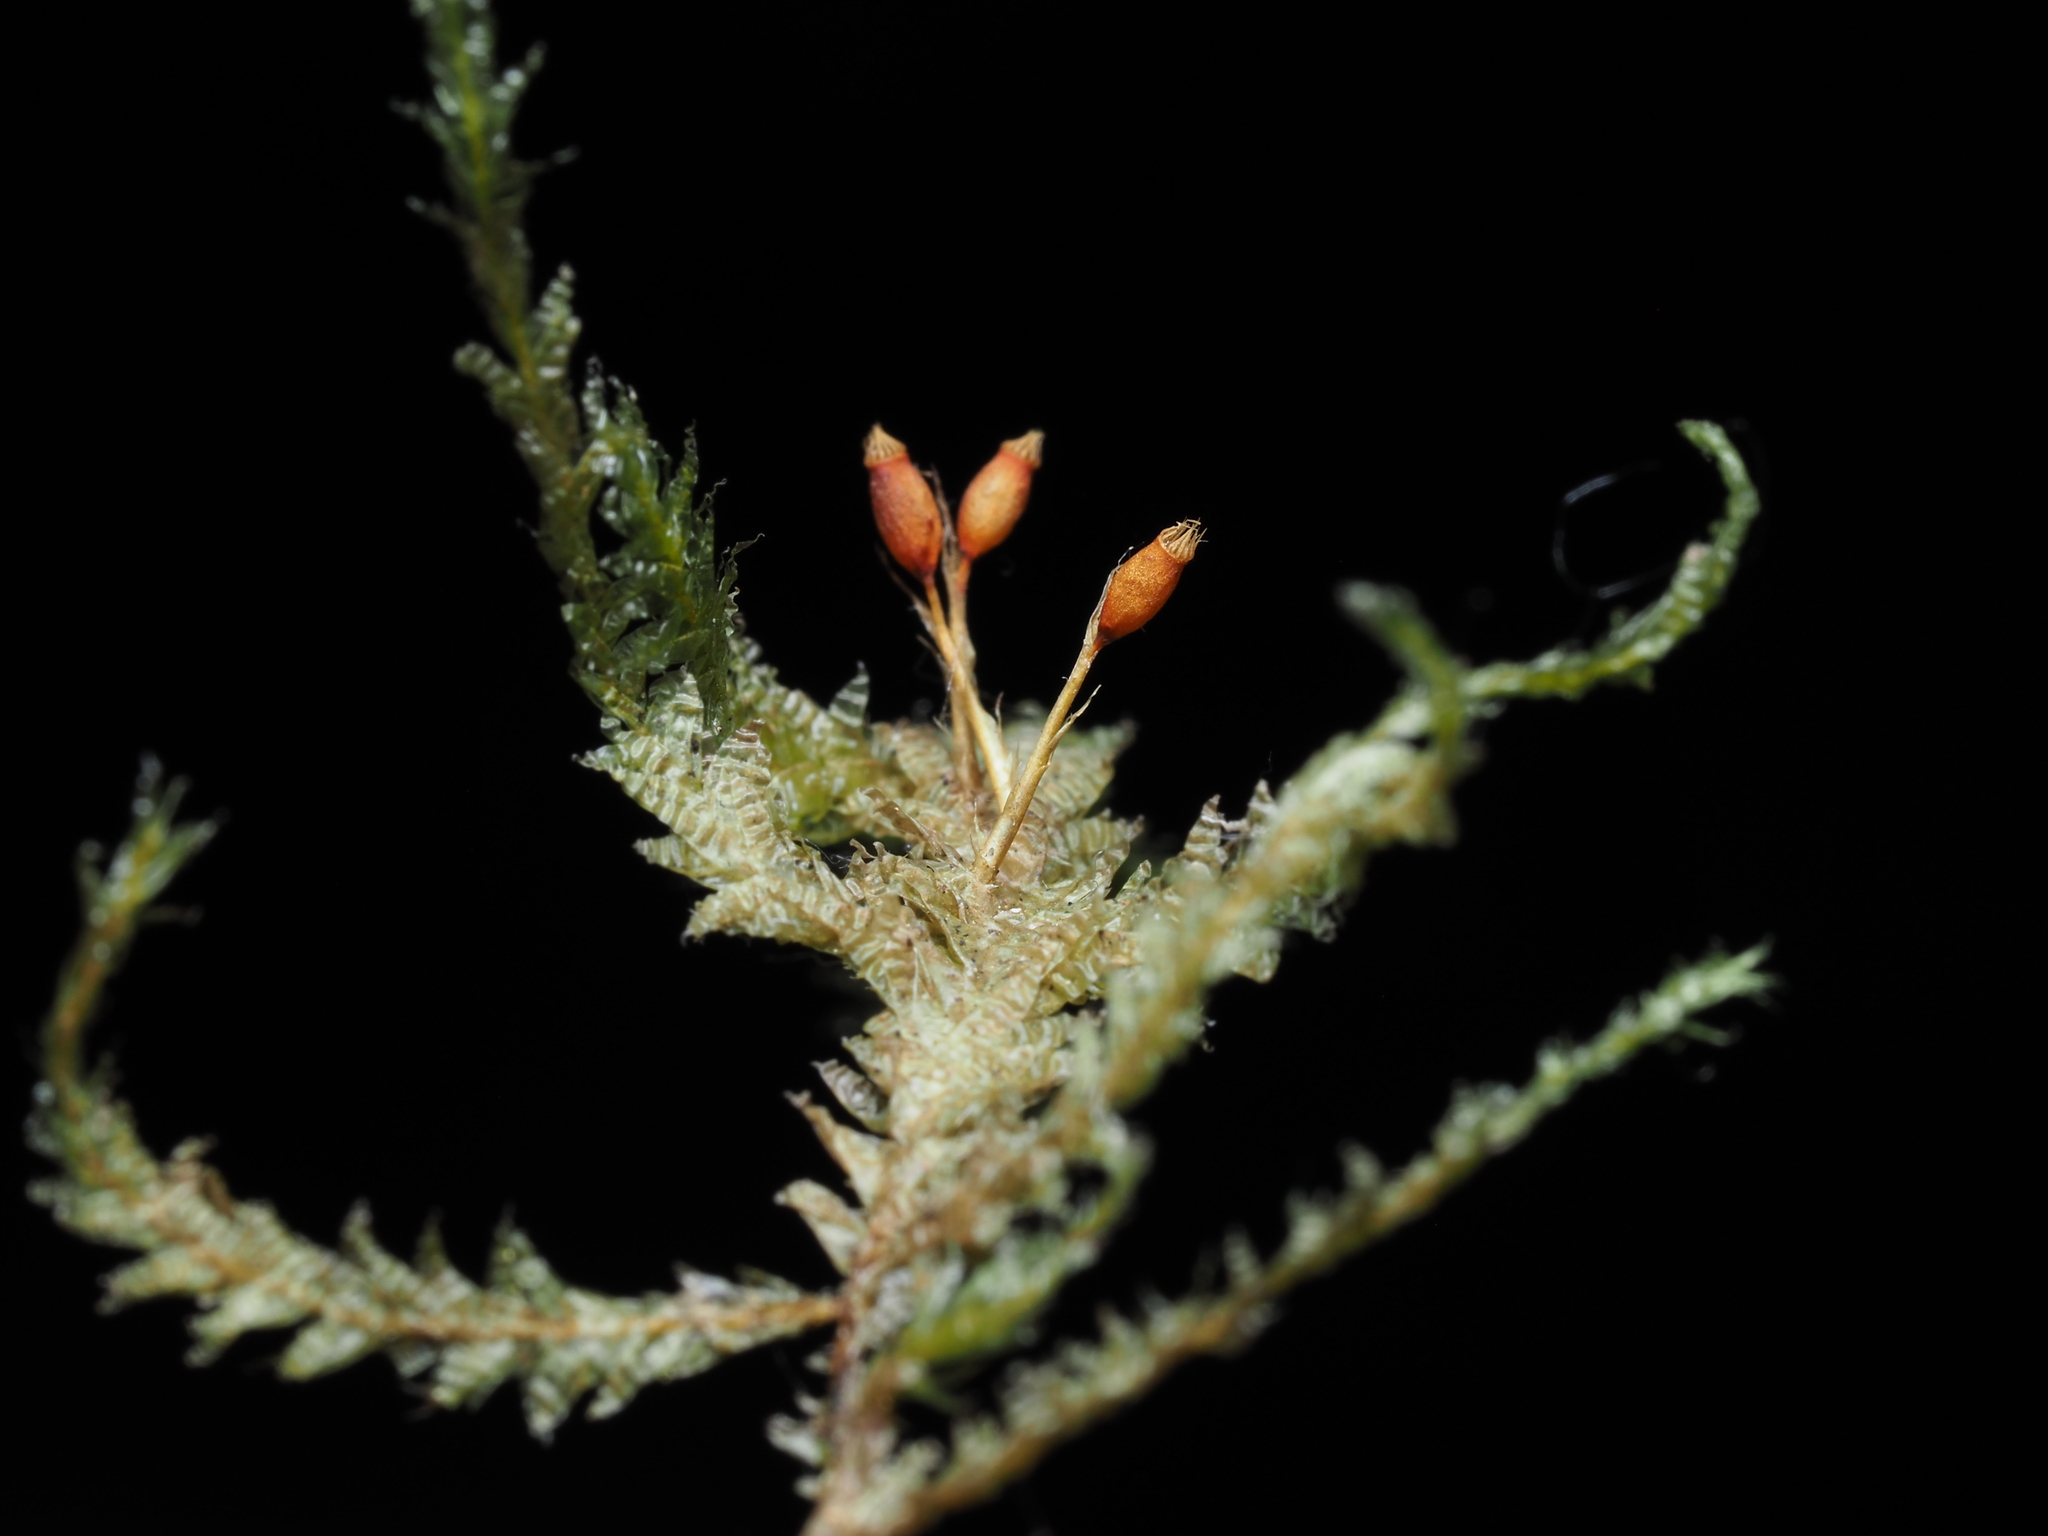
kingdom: Plantae
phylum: Bryophyta
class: Bryopsida
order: Hypnales
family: Neckeraceae
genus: Neckera
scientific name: Neckera douglasii
